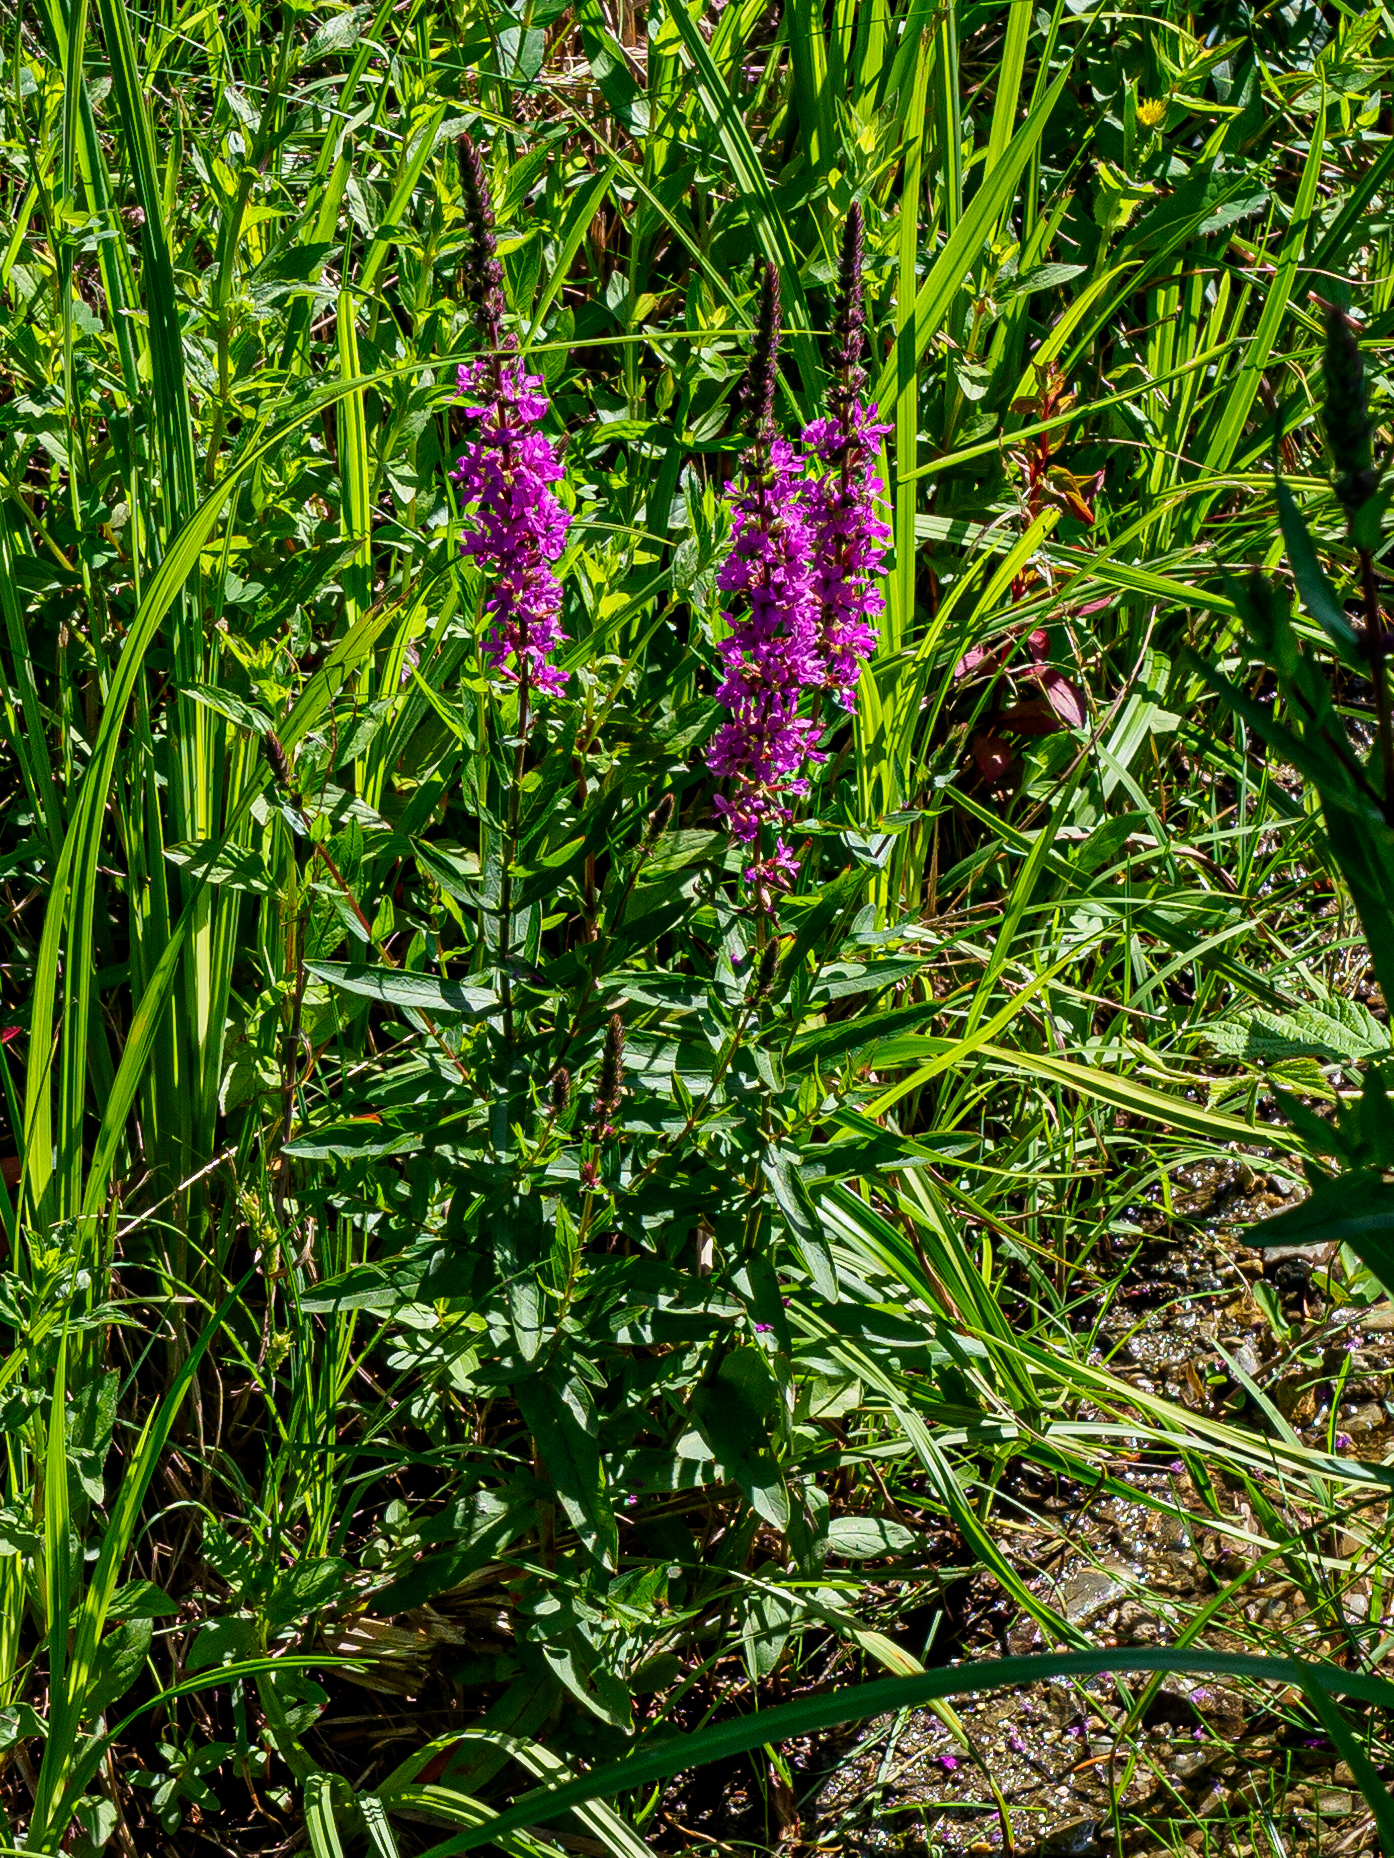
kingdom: Plantae
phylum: Tracheophyta
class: Magnoliopsida
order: Myrtales
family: Lythraceae
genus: Lythrum
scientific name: Lythrum salicaria
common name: Purple loosestrife
